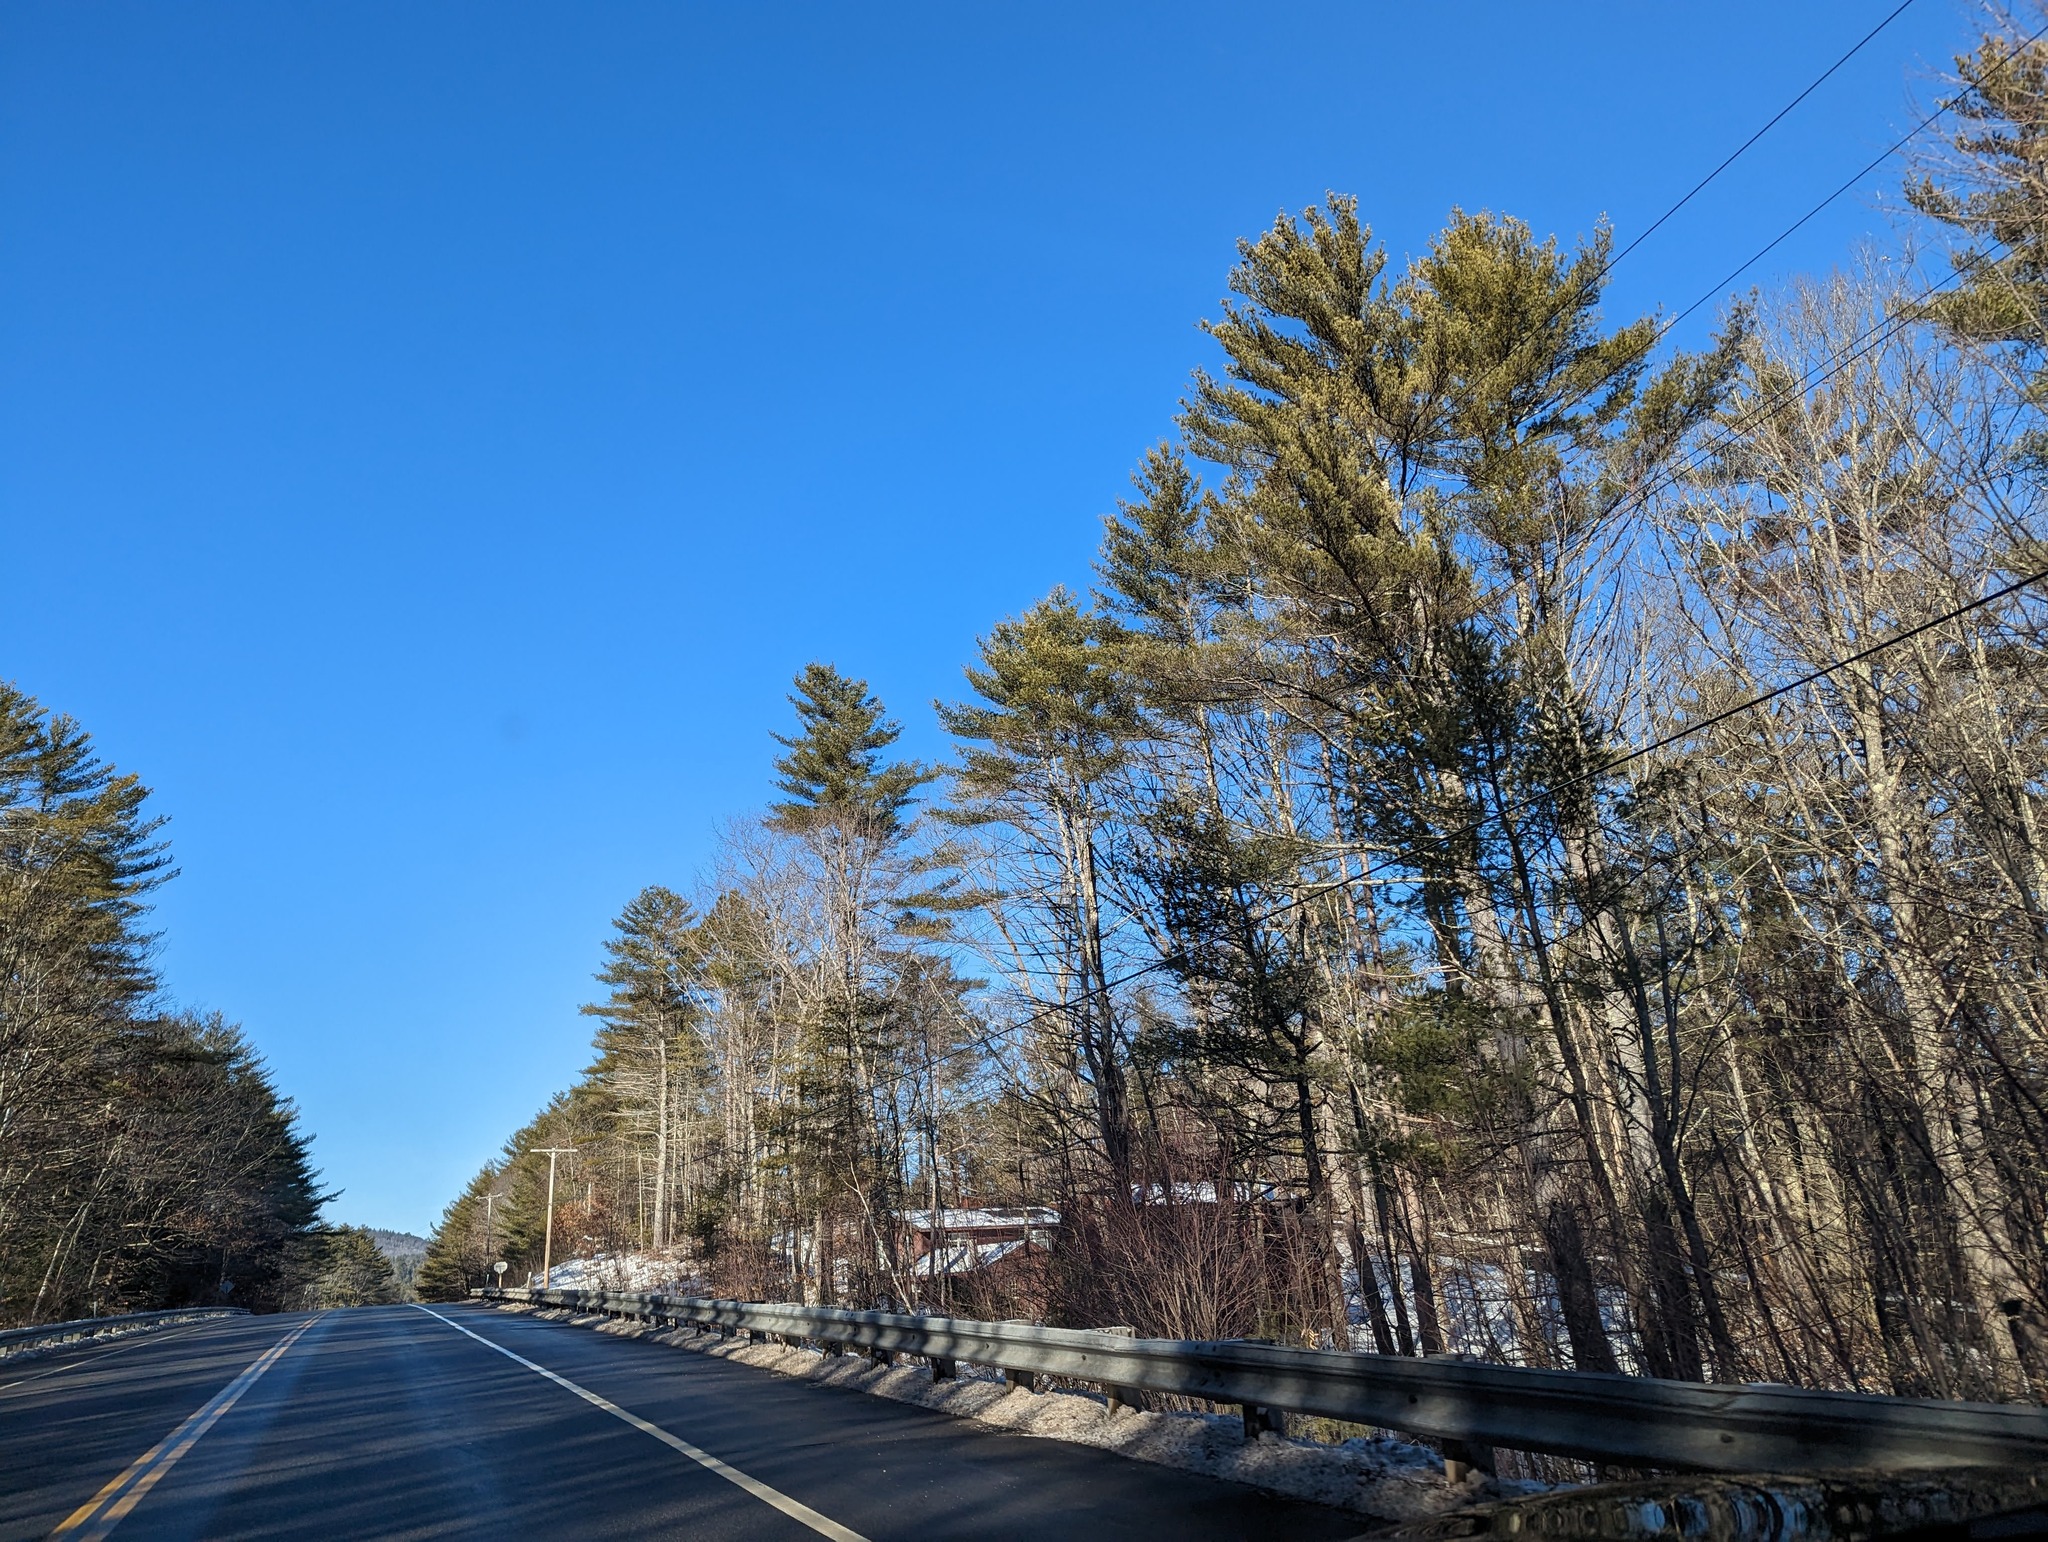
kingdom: Plantae
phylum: Tracheophyta
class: Pinopsida
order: Pinales
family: Pinaceae
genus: Pinus
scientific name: Pinus strobus
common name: Weymouth pine
